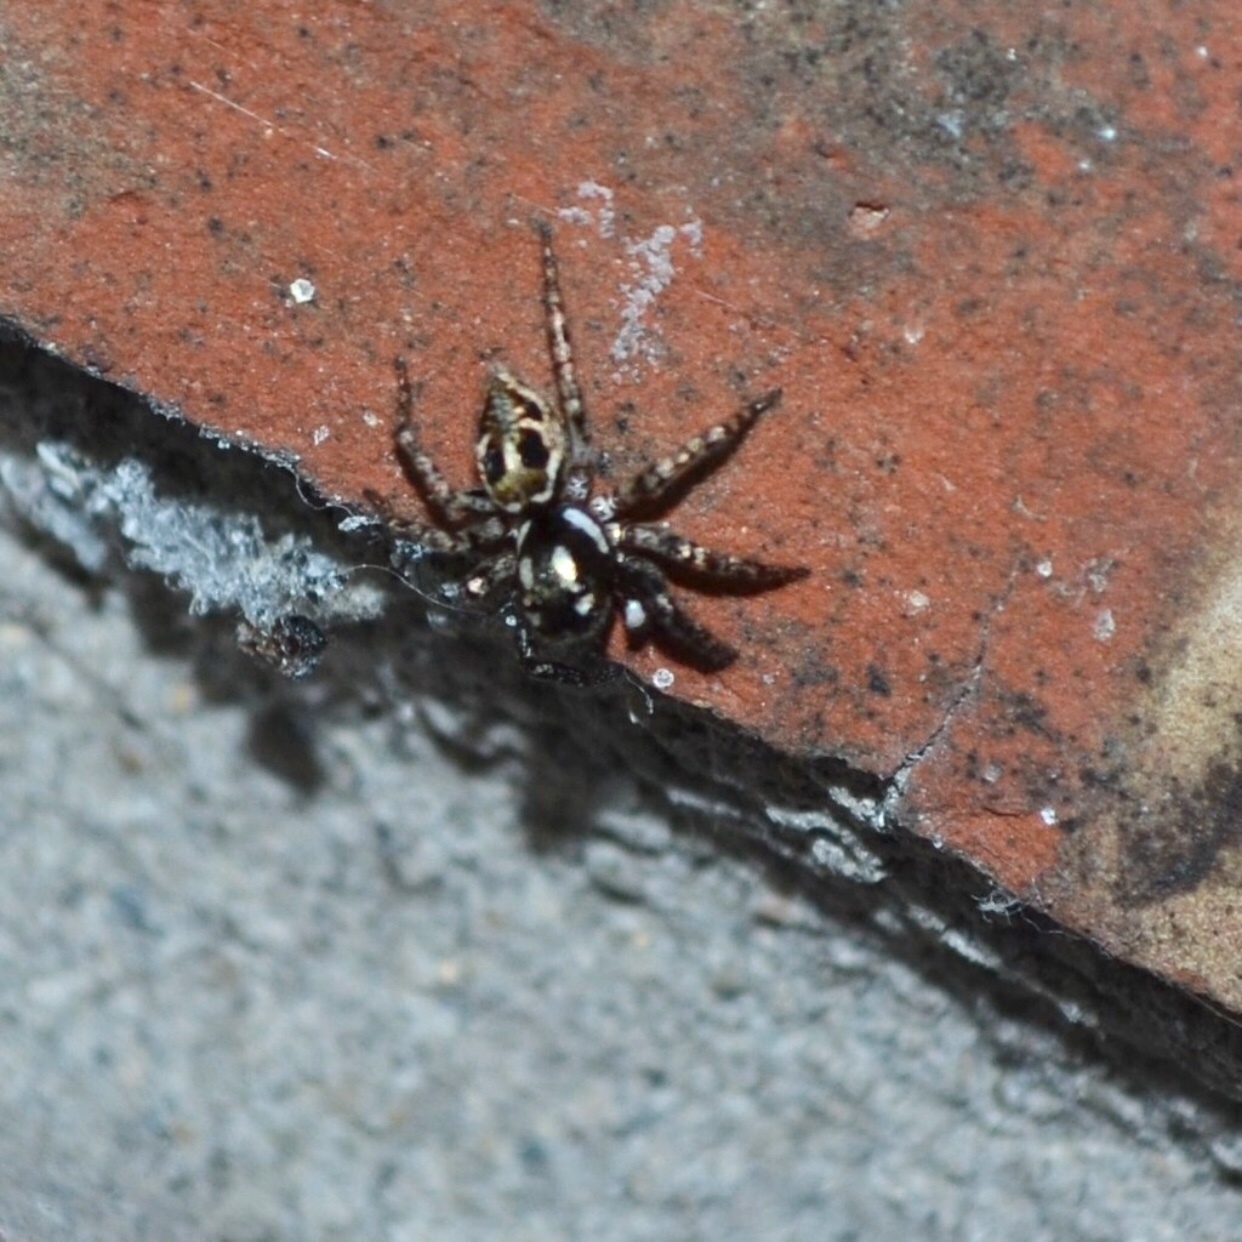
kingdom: Animalia
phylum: Arthropoda
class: Arachnida
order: Araneae
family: Salticidae
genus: Anasaitis
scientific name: Anasaitis canosa
